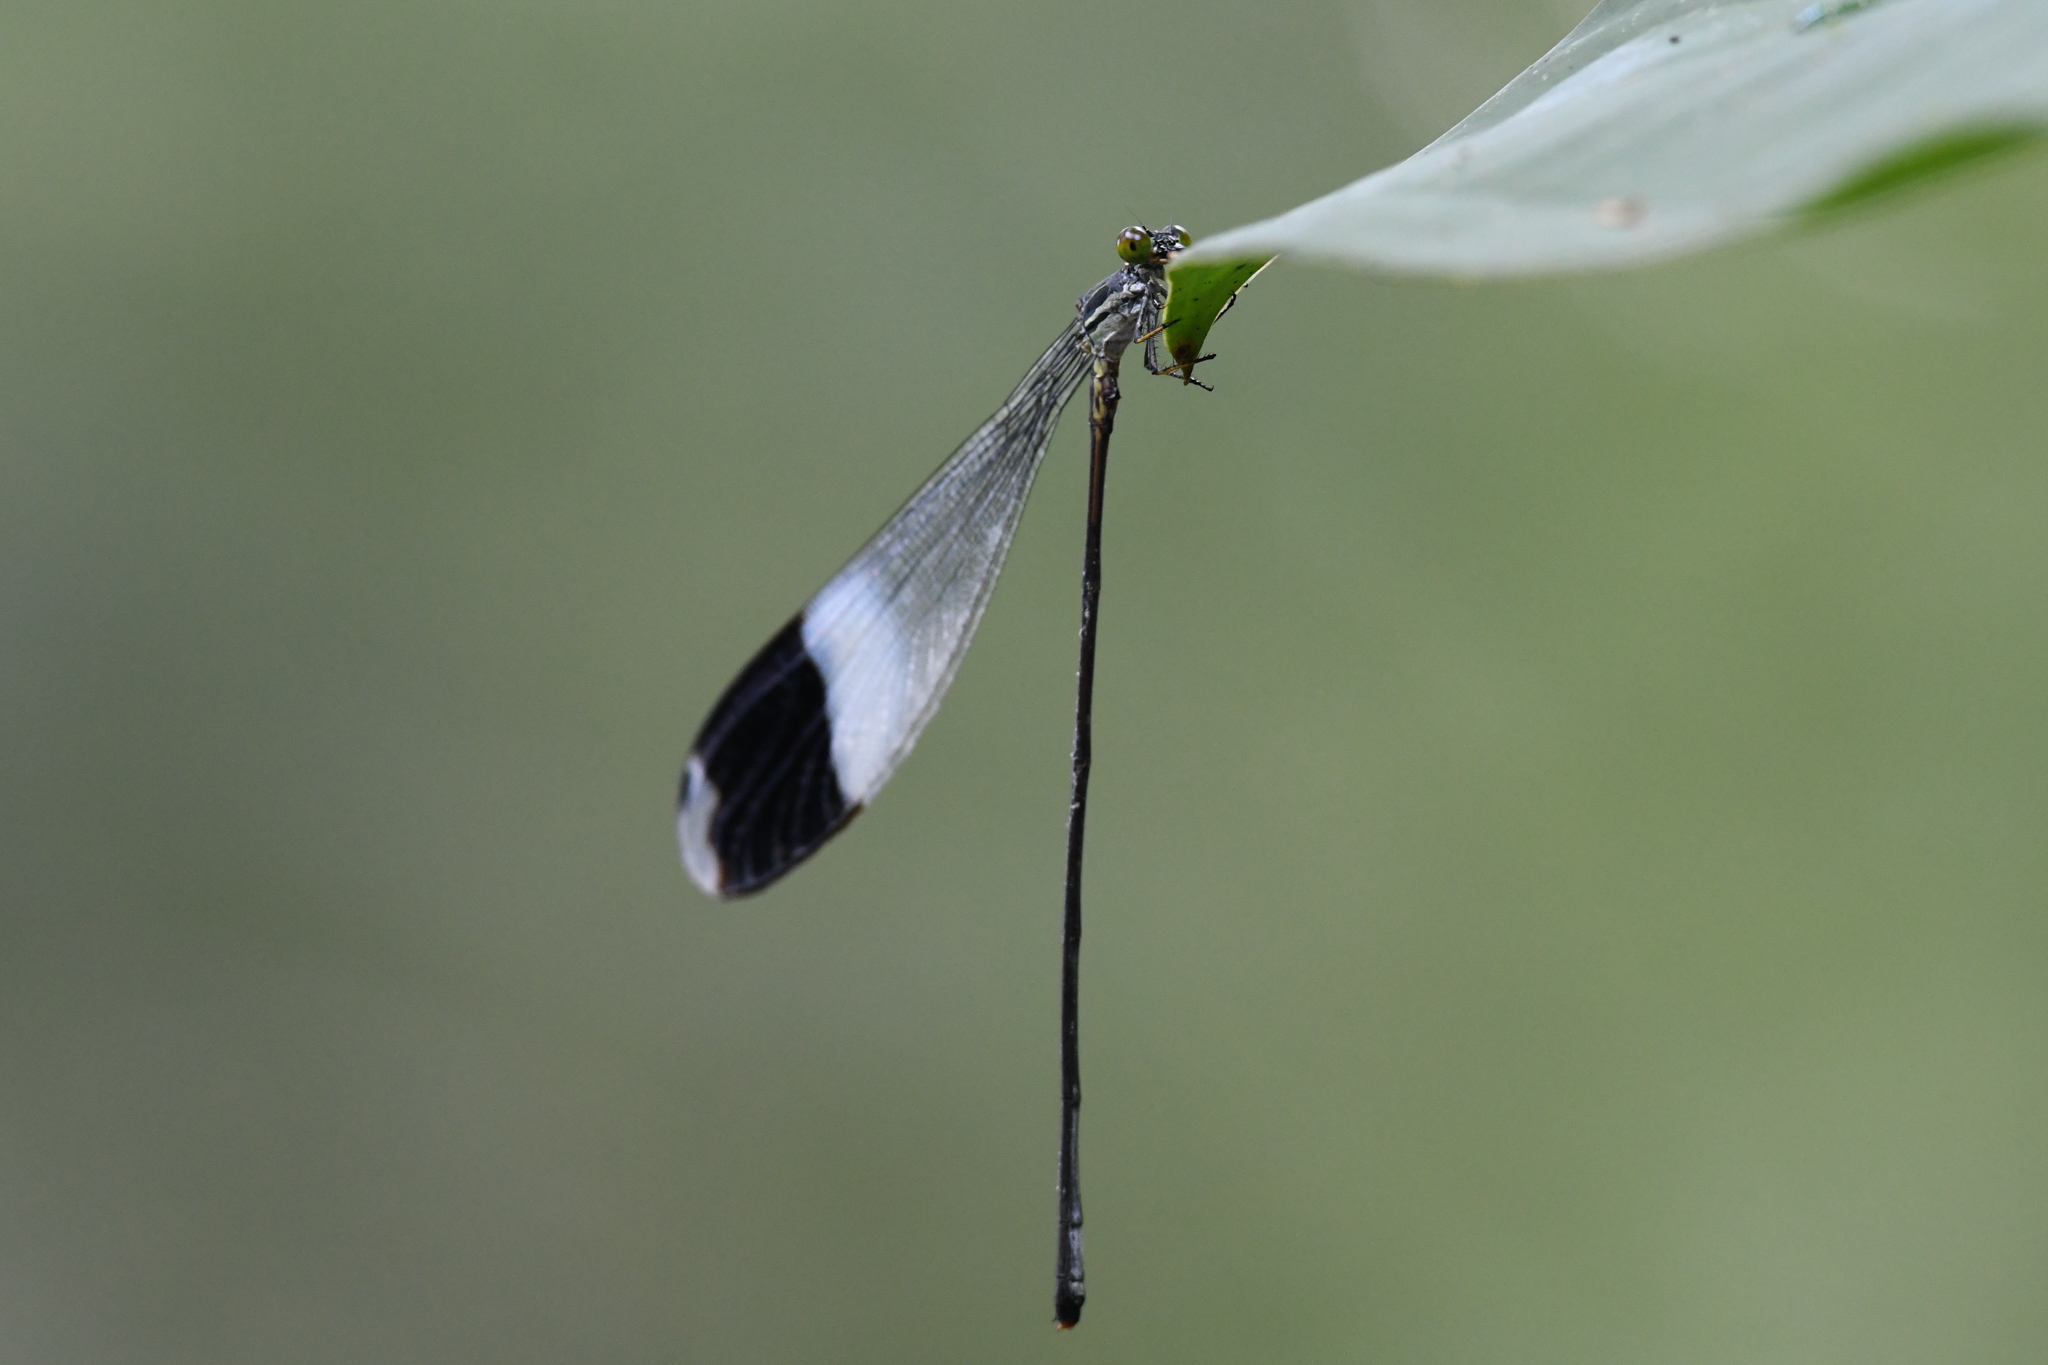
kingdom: Animalia
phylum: Arthropoda
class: Insecta
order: Odonata
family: Coenagrionidae
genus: Megaloprepus
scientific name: Megaloprepus caerulatus
